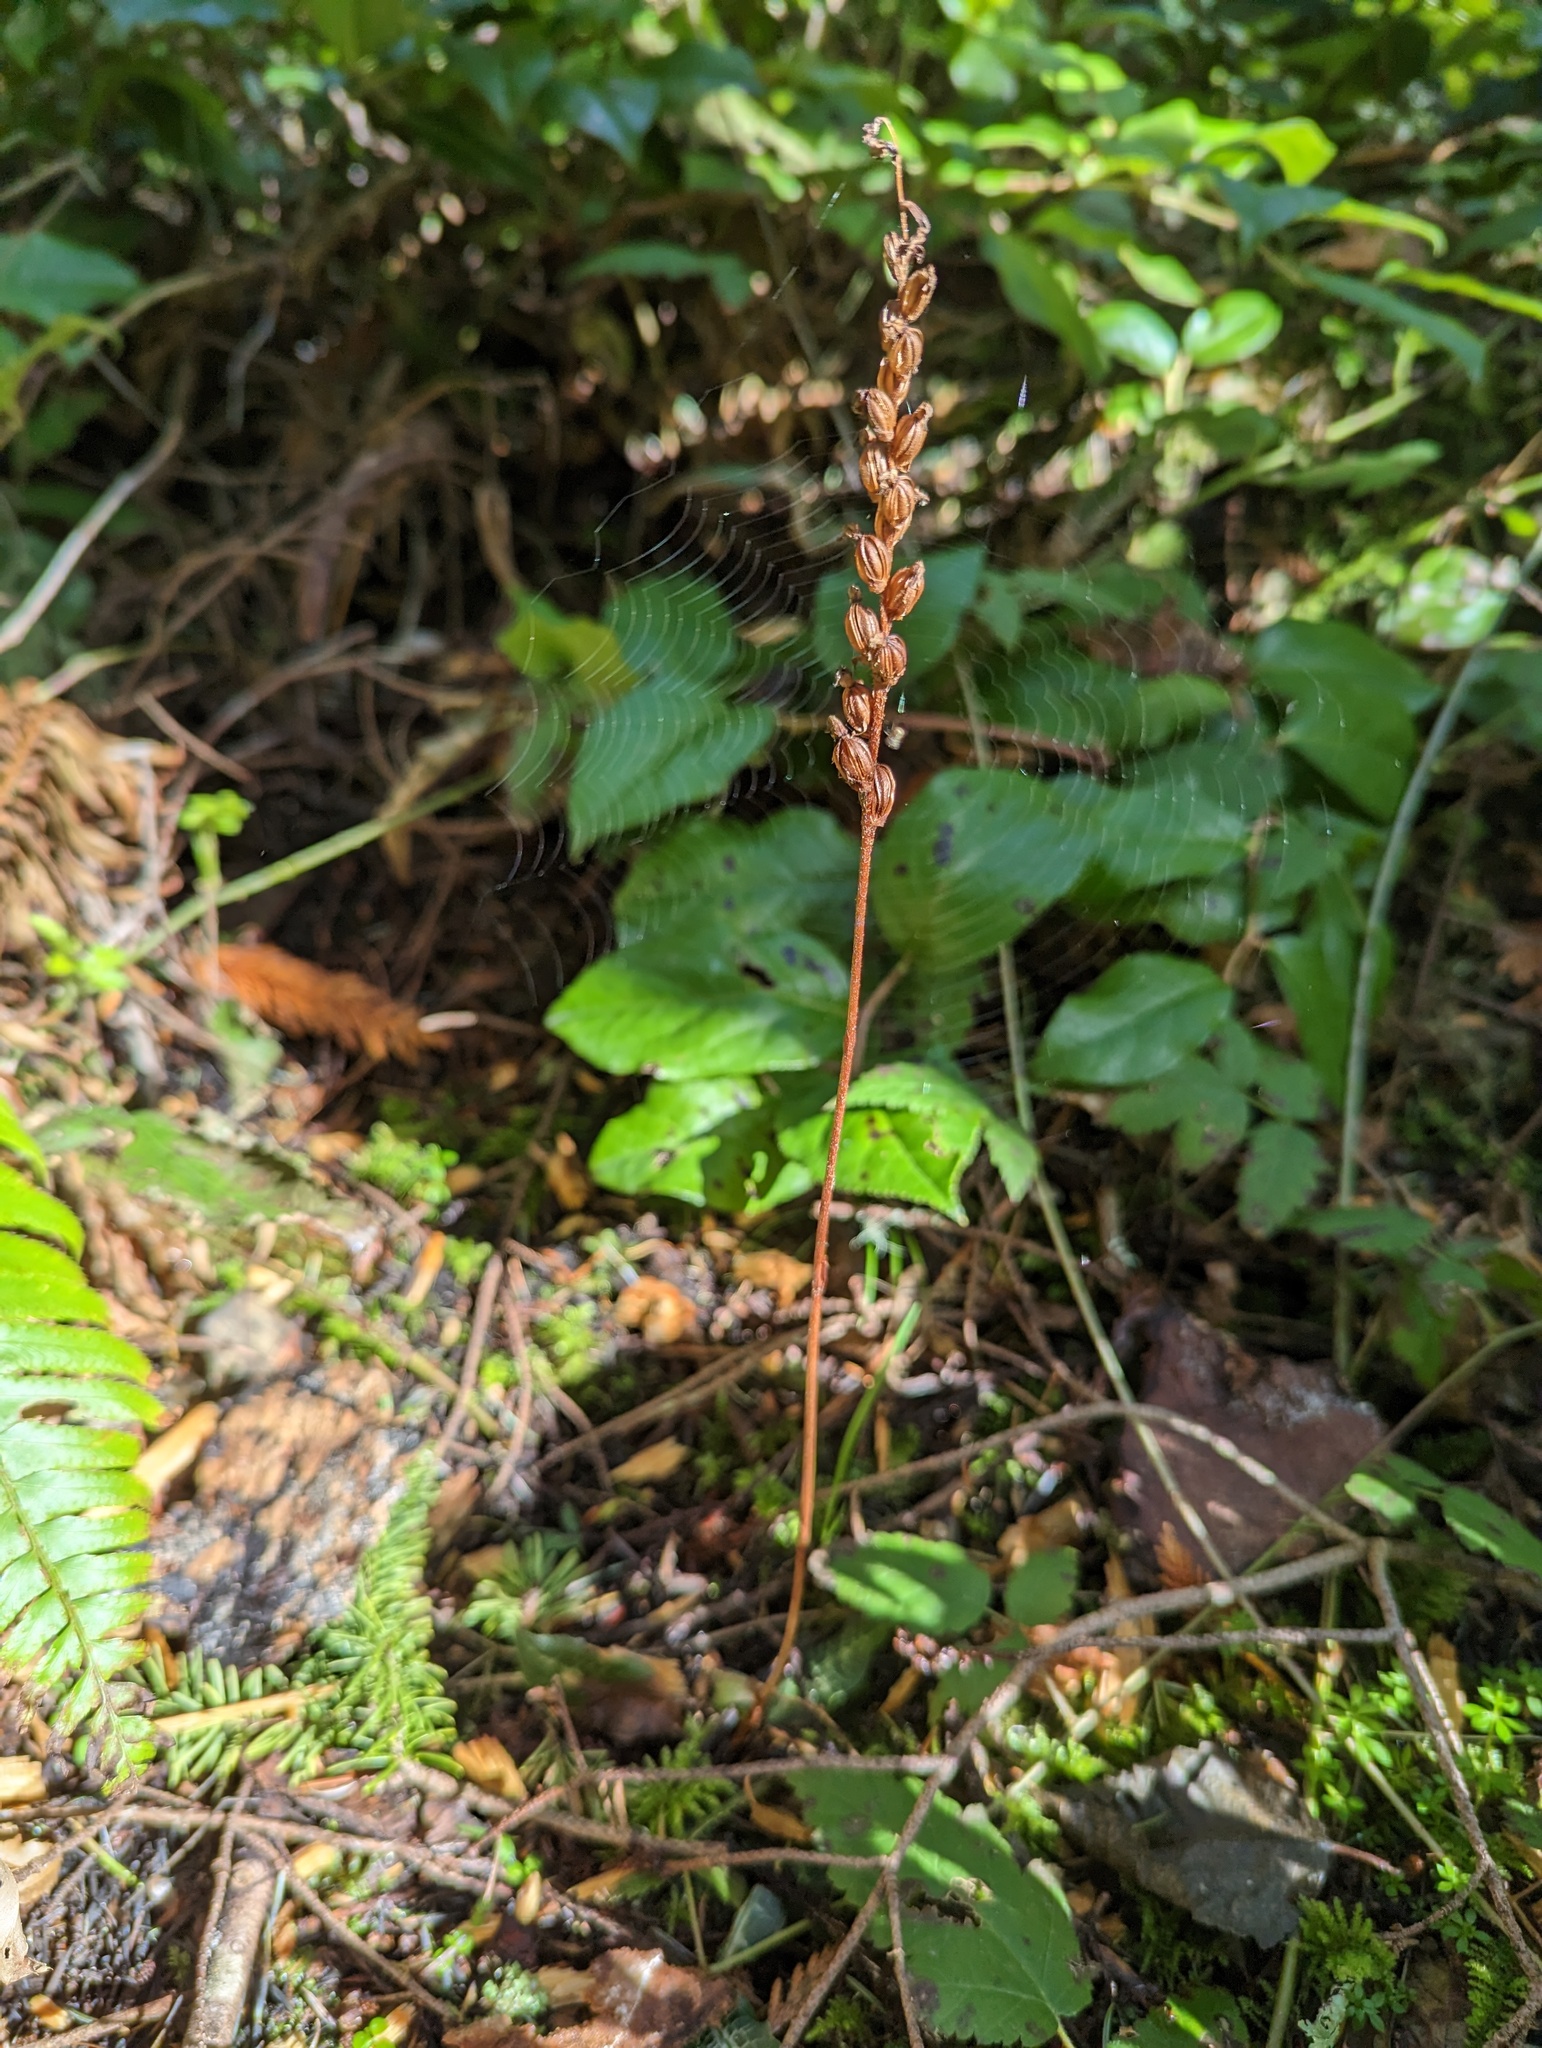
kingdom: Plantae
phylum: Tracheophyta
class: Liliopsida
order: Asparagales
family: Orchidaceae
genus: Goodyera
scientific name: Goodyera oblongifolia
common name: Giant rattlesnake-plantain
